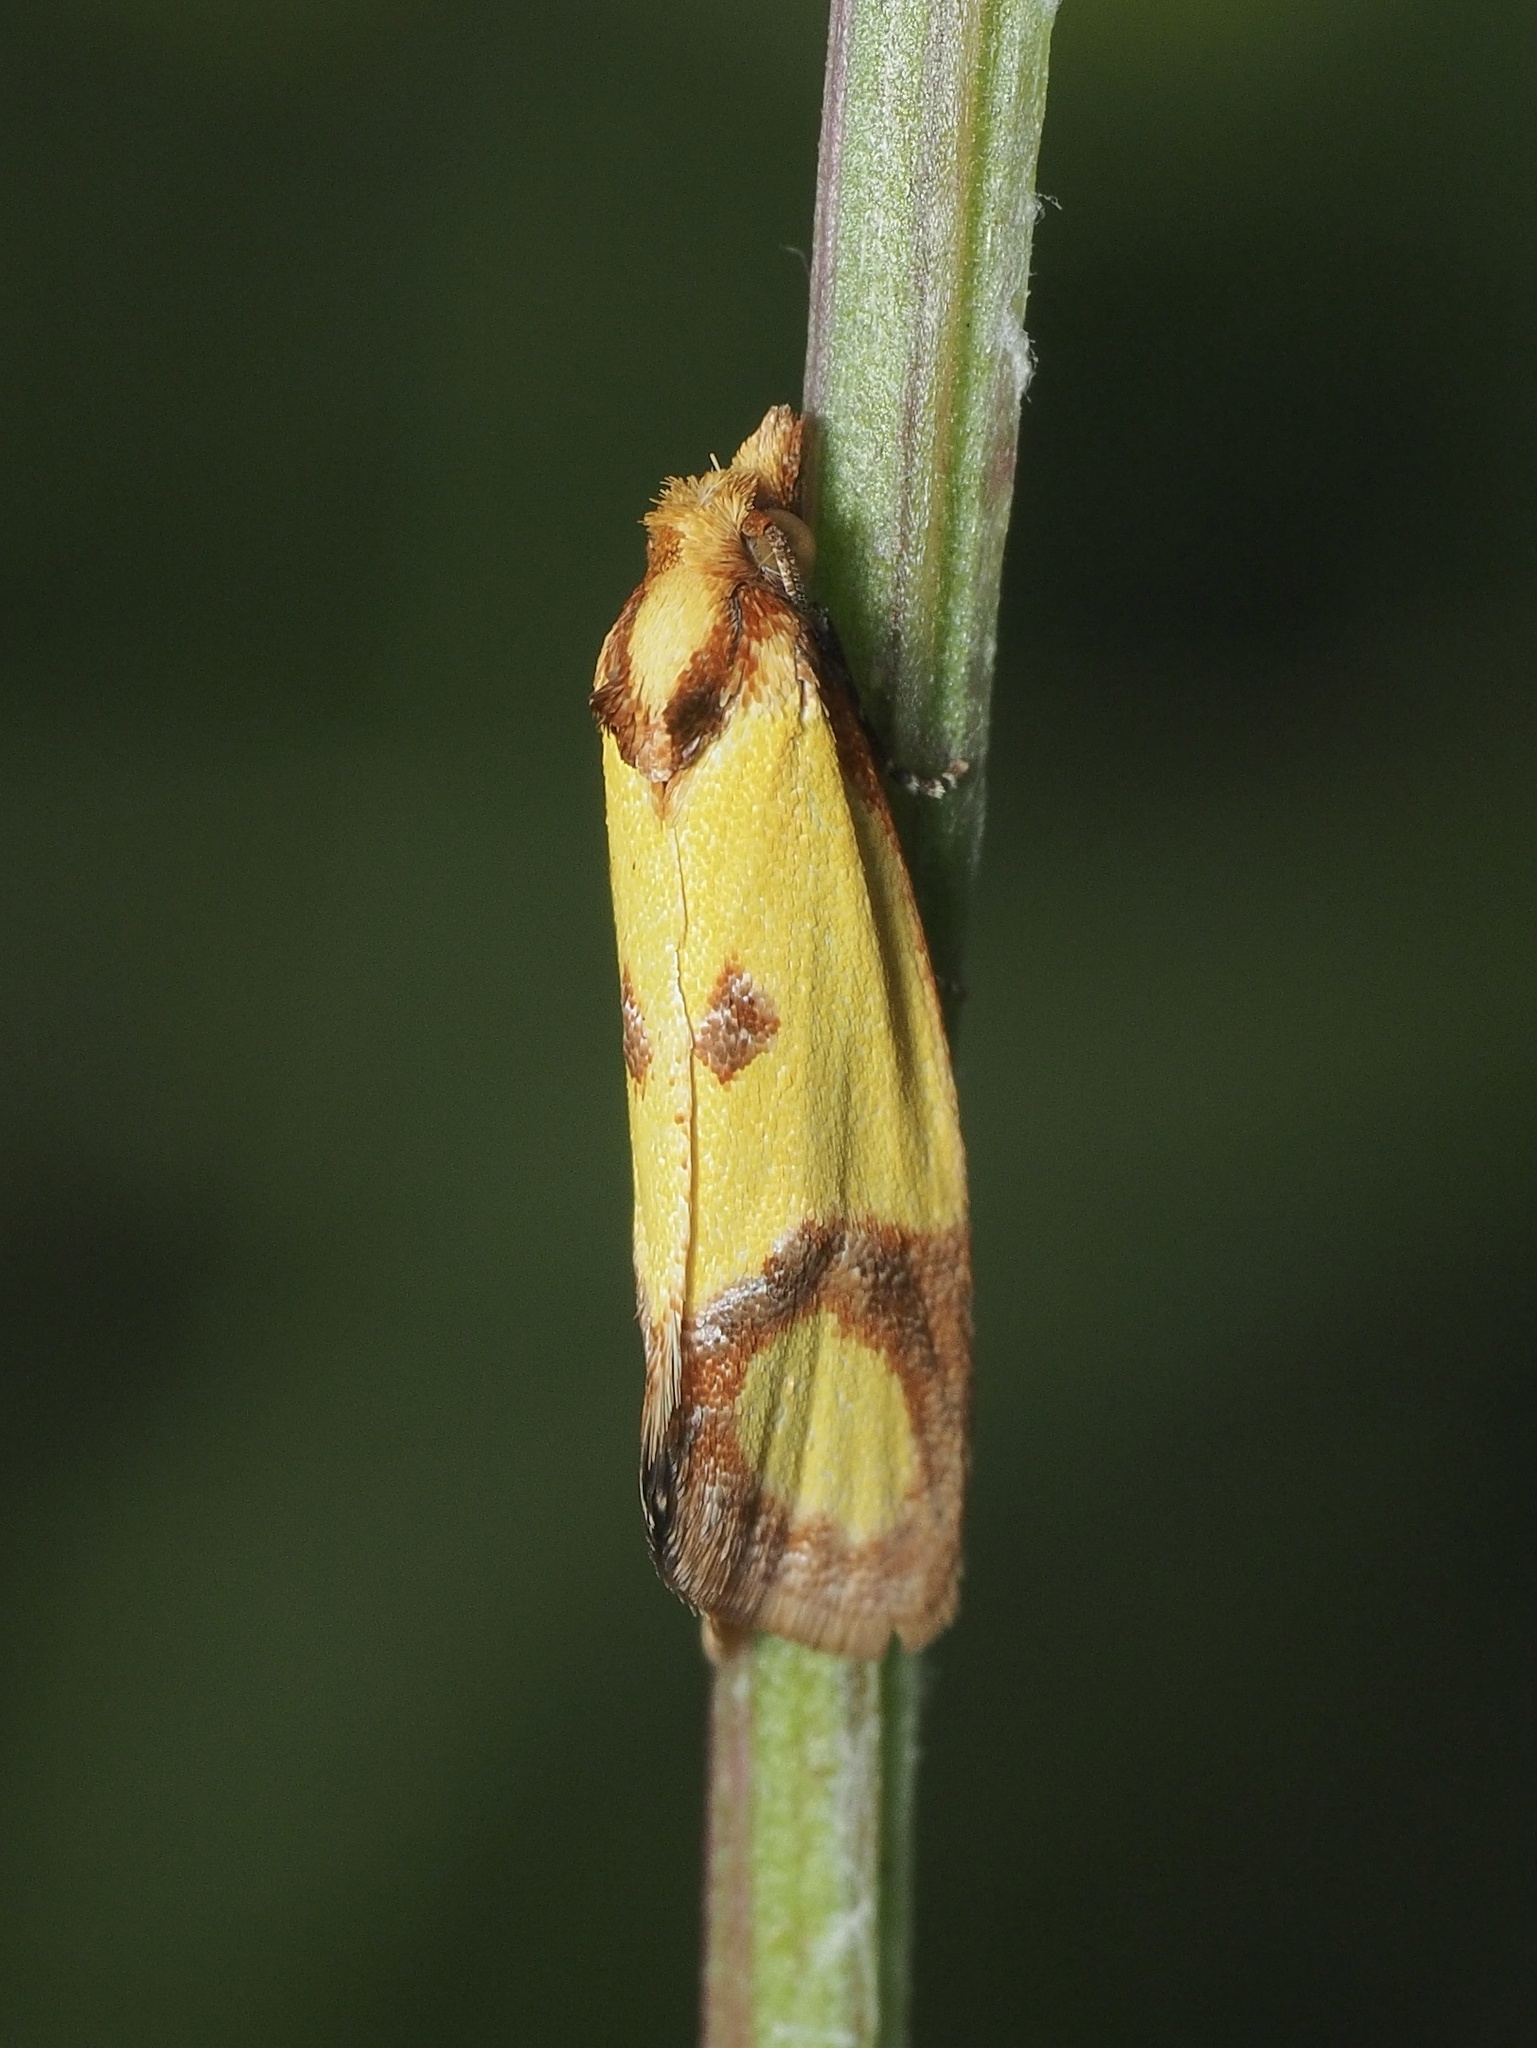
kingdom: Animalia
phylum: Arthropoda
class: Insecta
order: Lepidoptera
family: Tortricidae
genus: Agapeta
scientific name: Agapeta zoegana
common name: Sulfur knapweed root moth
